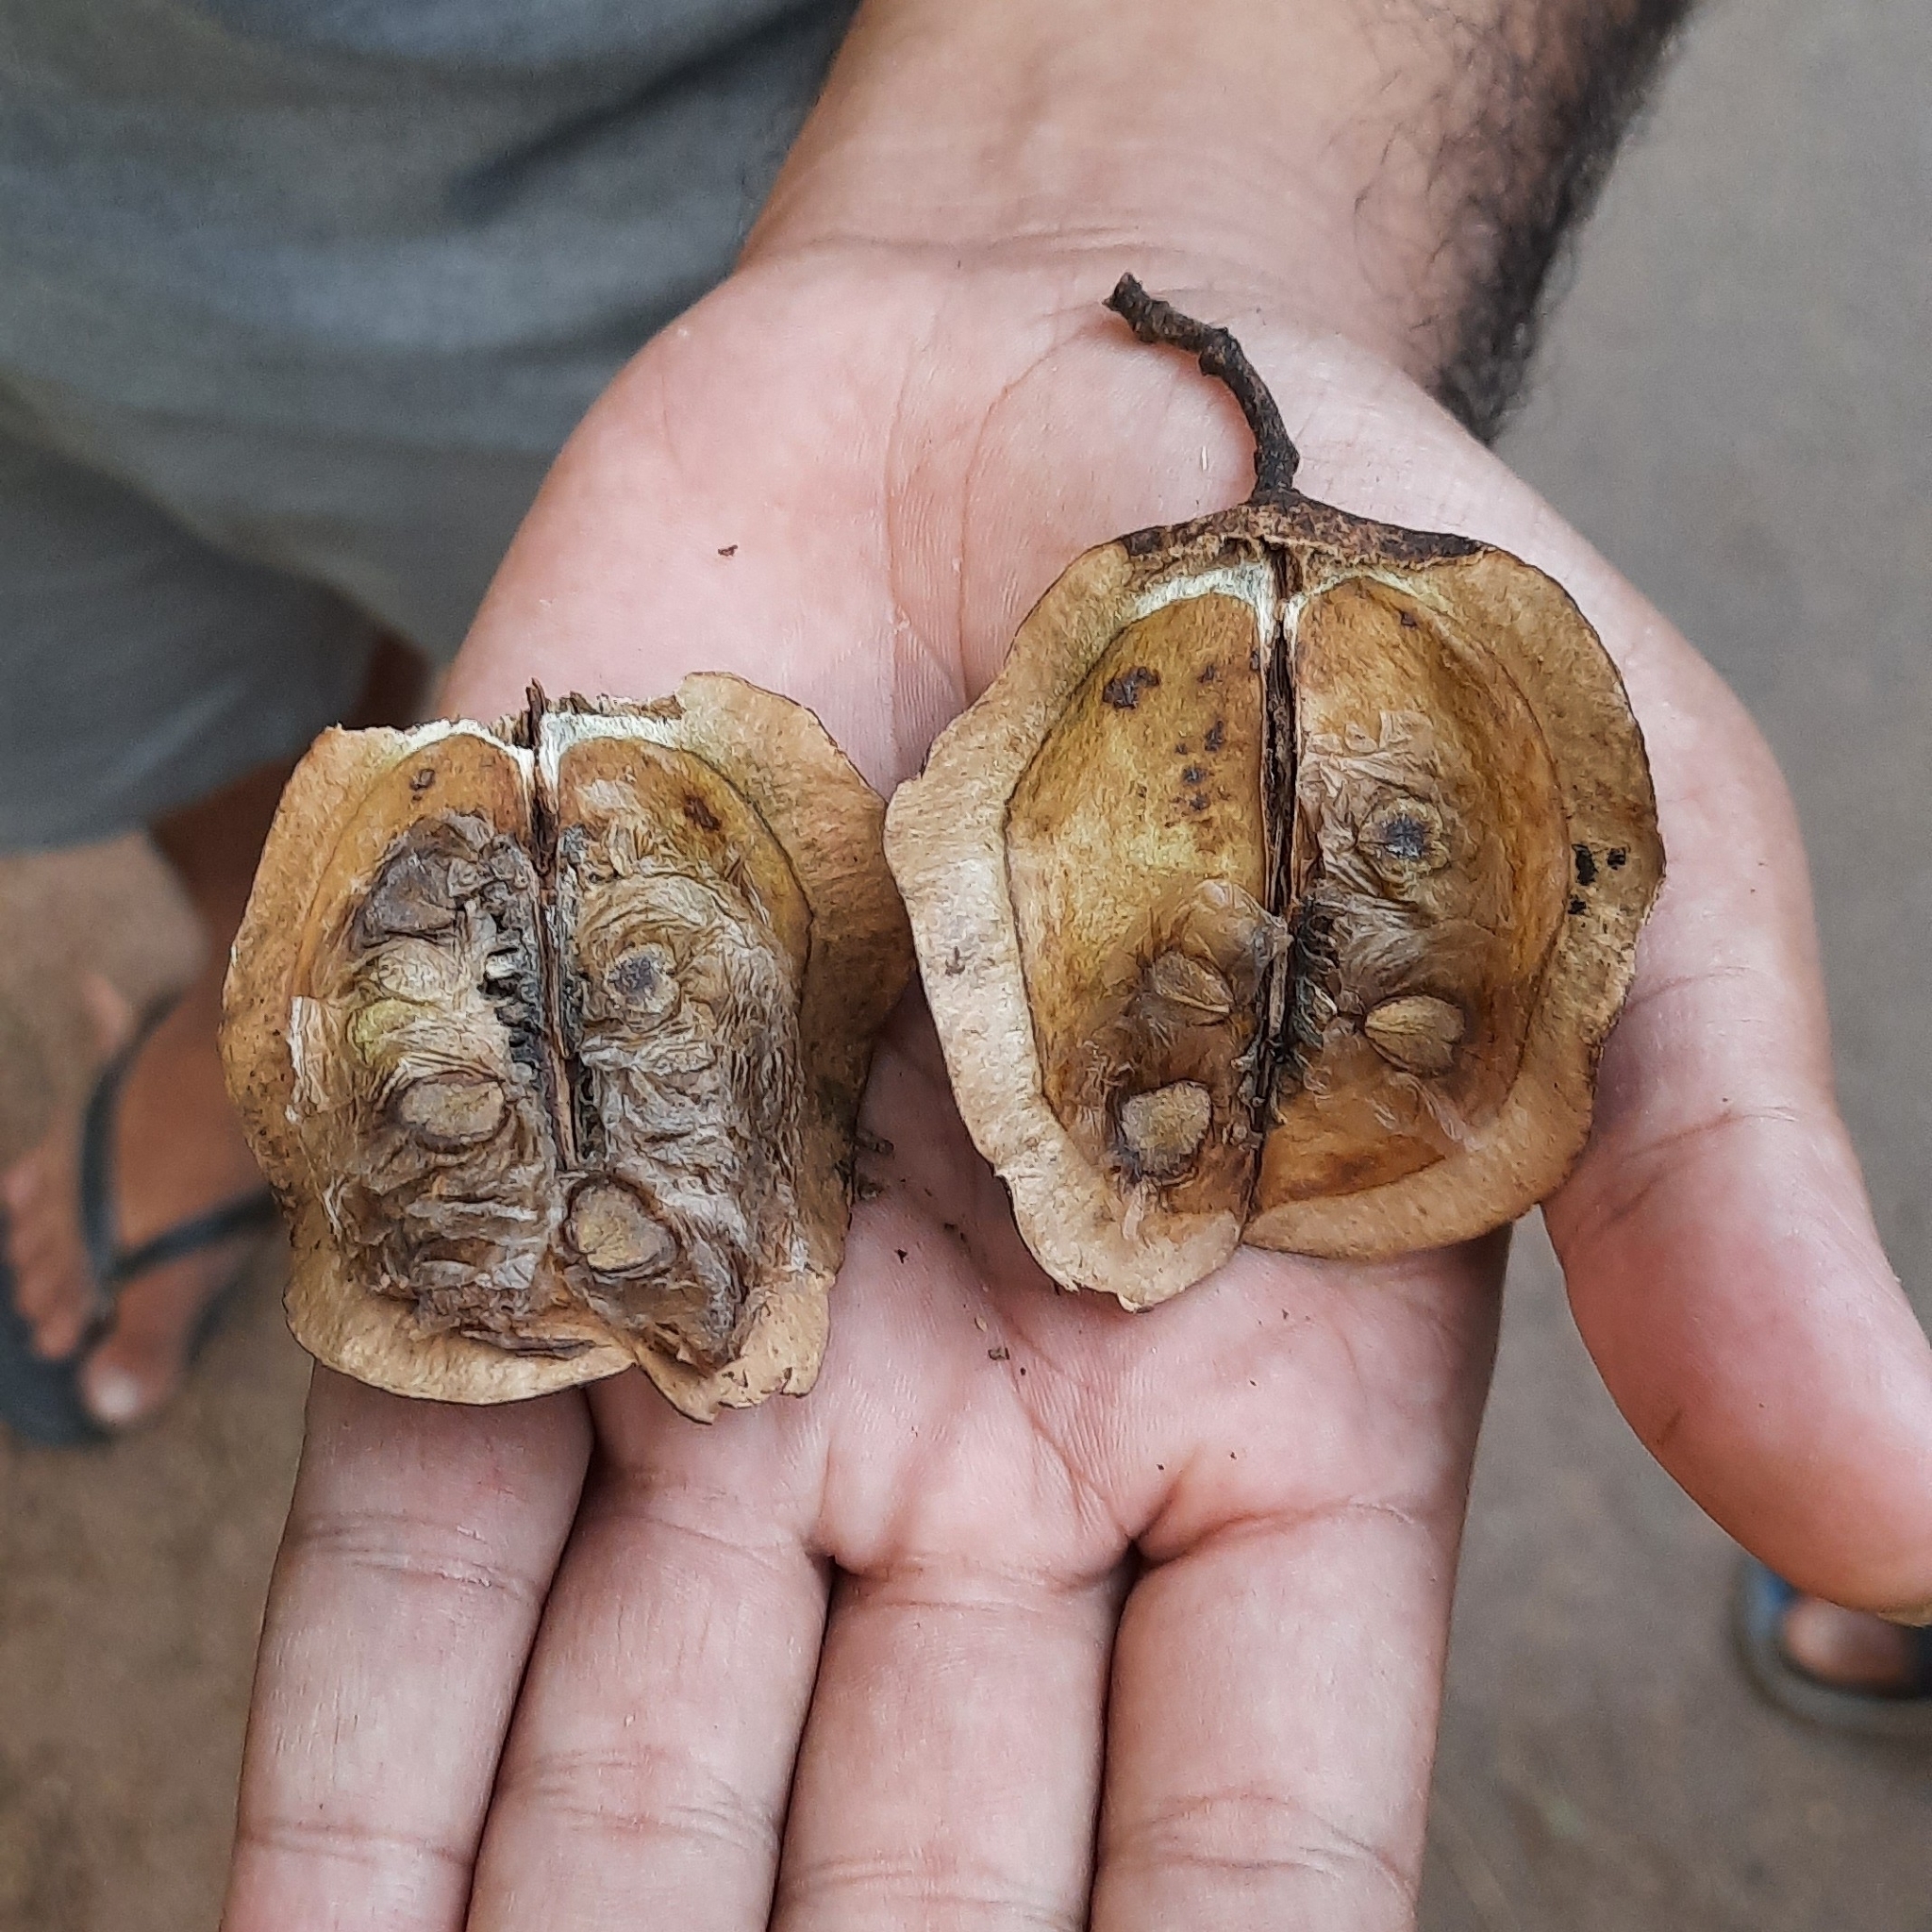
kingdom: Plantae
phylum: Tracheophyta
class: Magnoliopsida
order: Lamiales
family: Bignoniaceae
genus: Jacaranda
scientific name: Jacaranda mimosifolia
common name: Black poui
